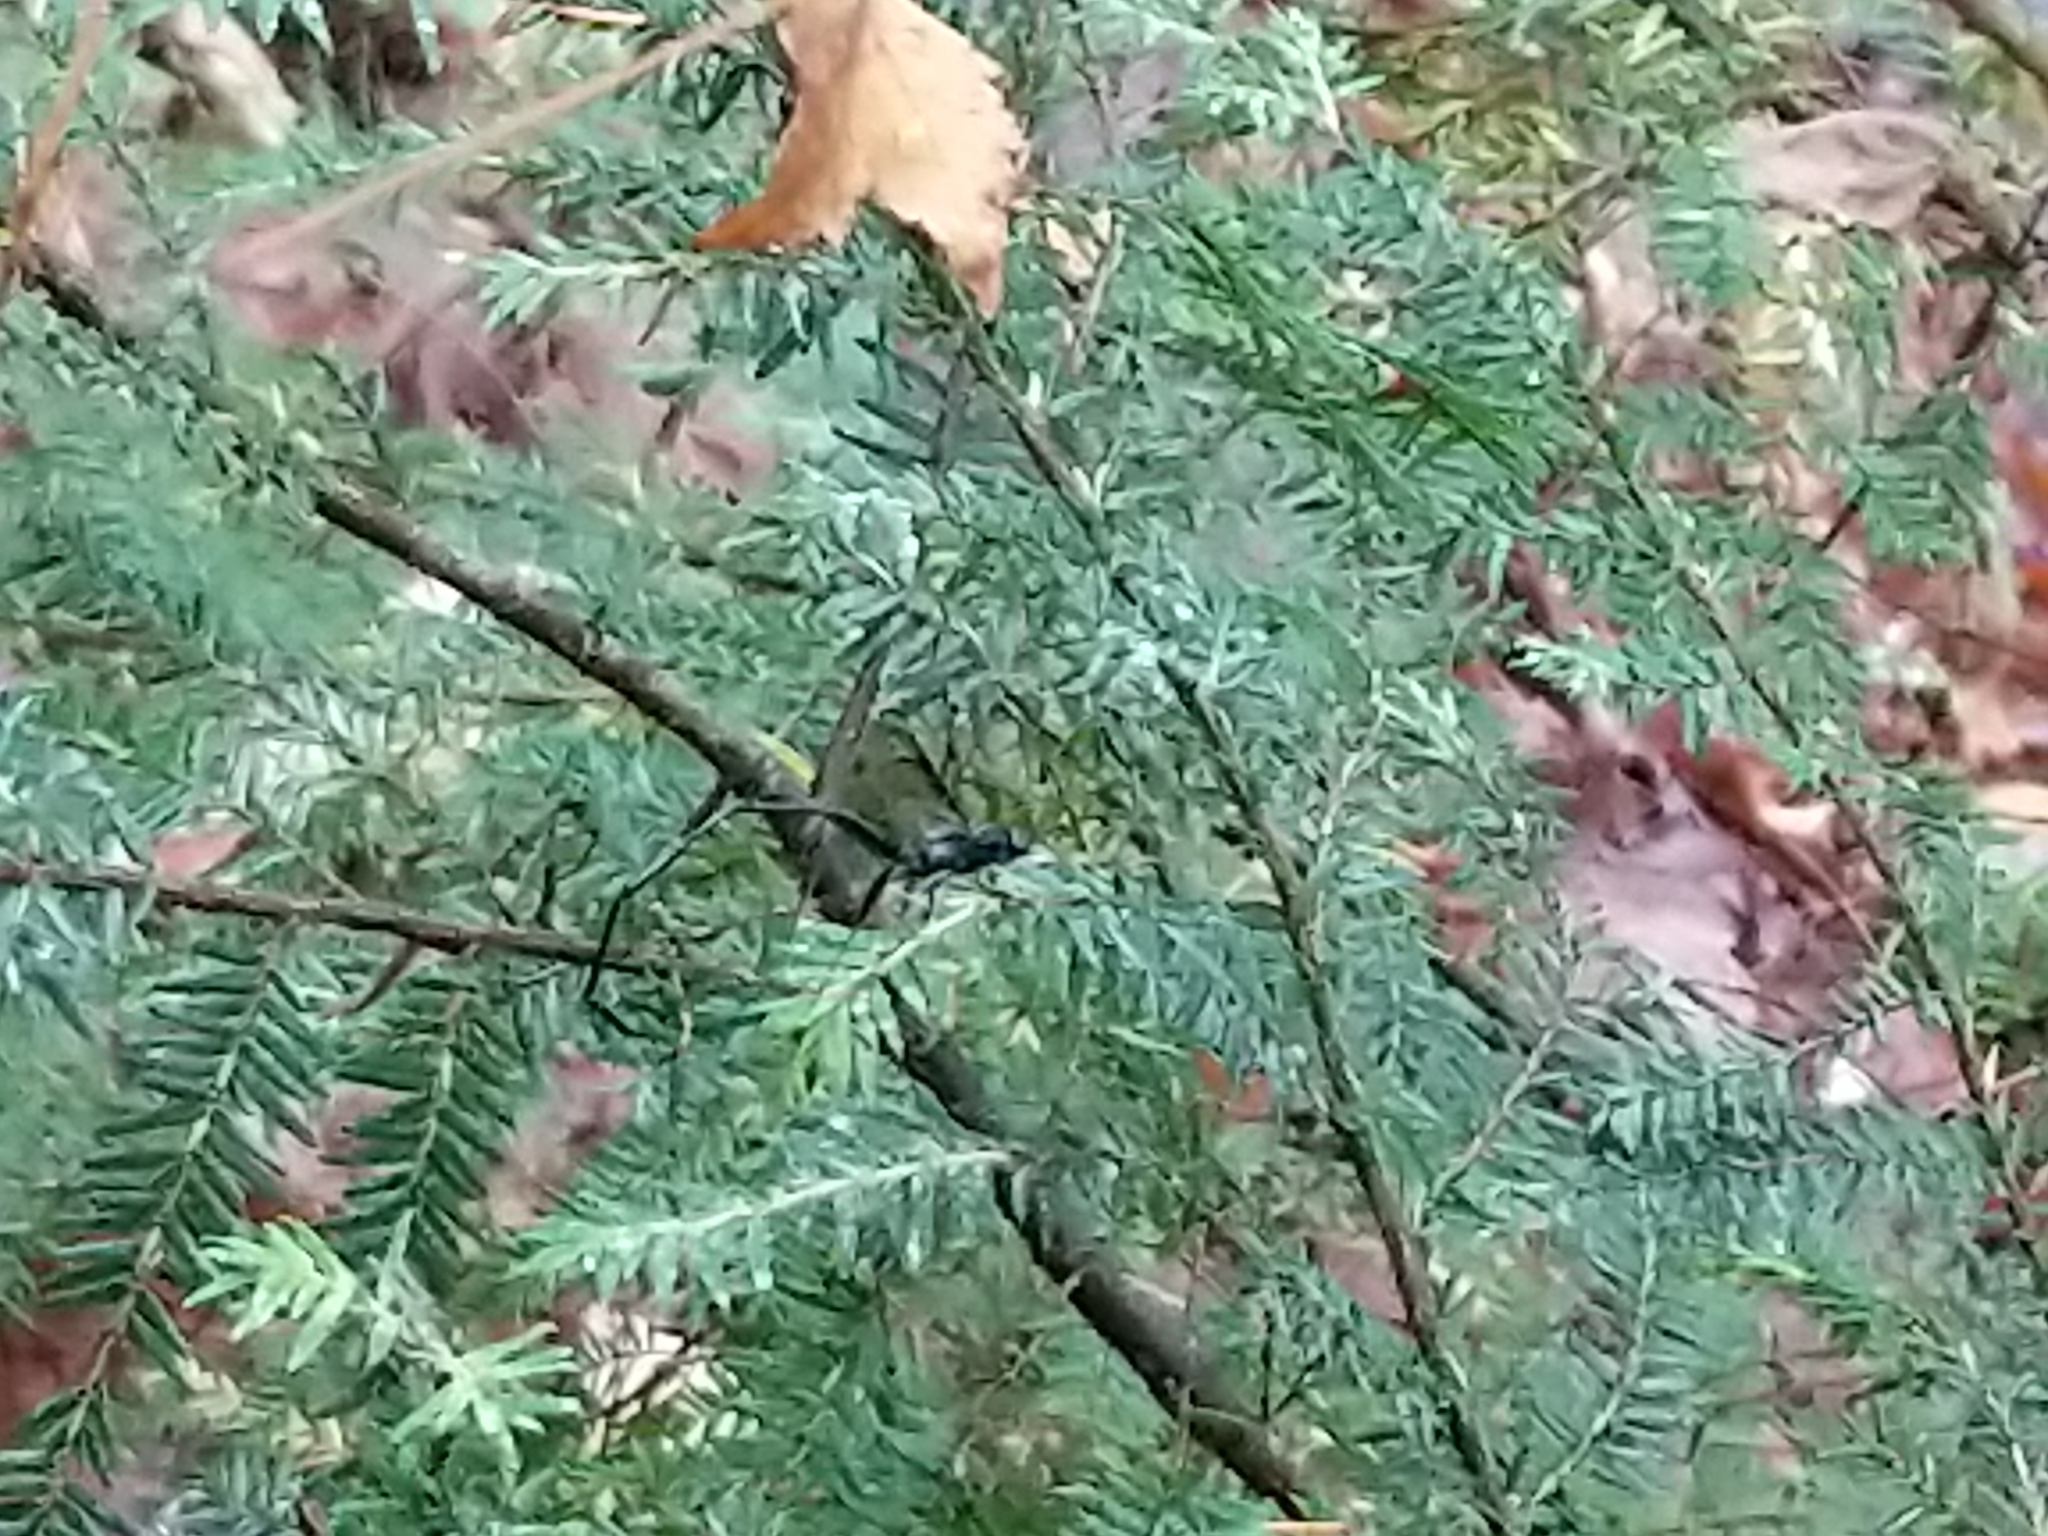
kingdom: Animalia
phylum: Arthropoda
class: Insecta
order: Hymenoptera
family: Pelecinidae
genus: Pelecinus
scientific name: Pelecinus polyturator
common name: American pelecinid wasp
